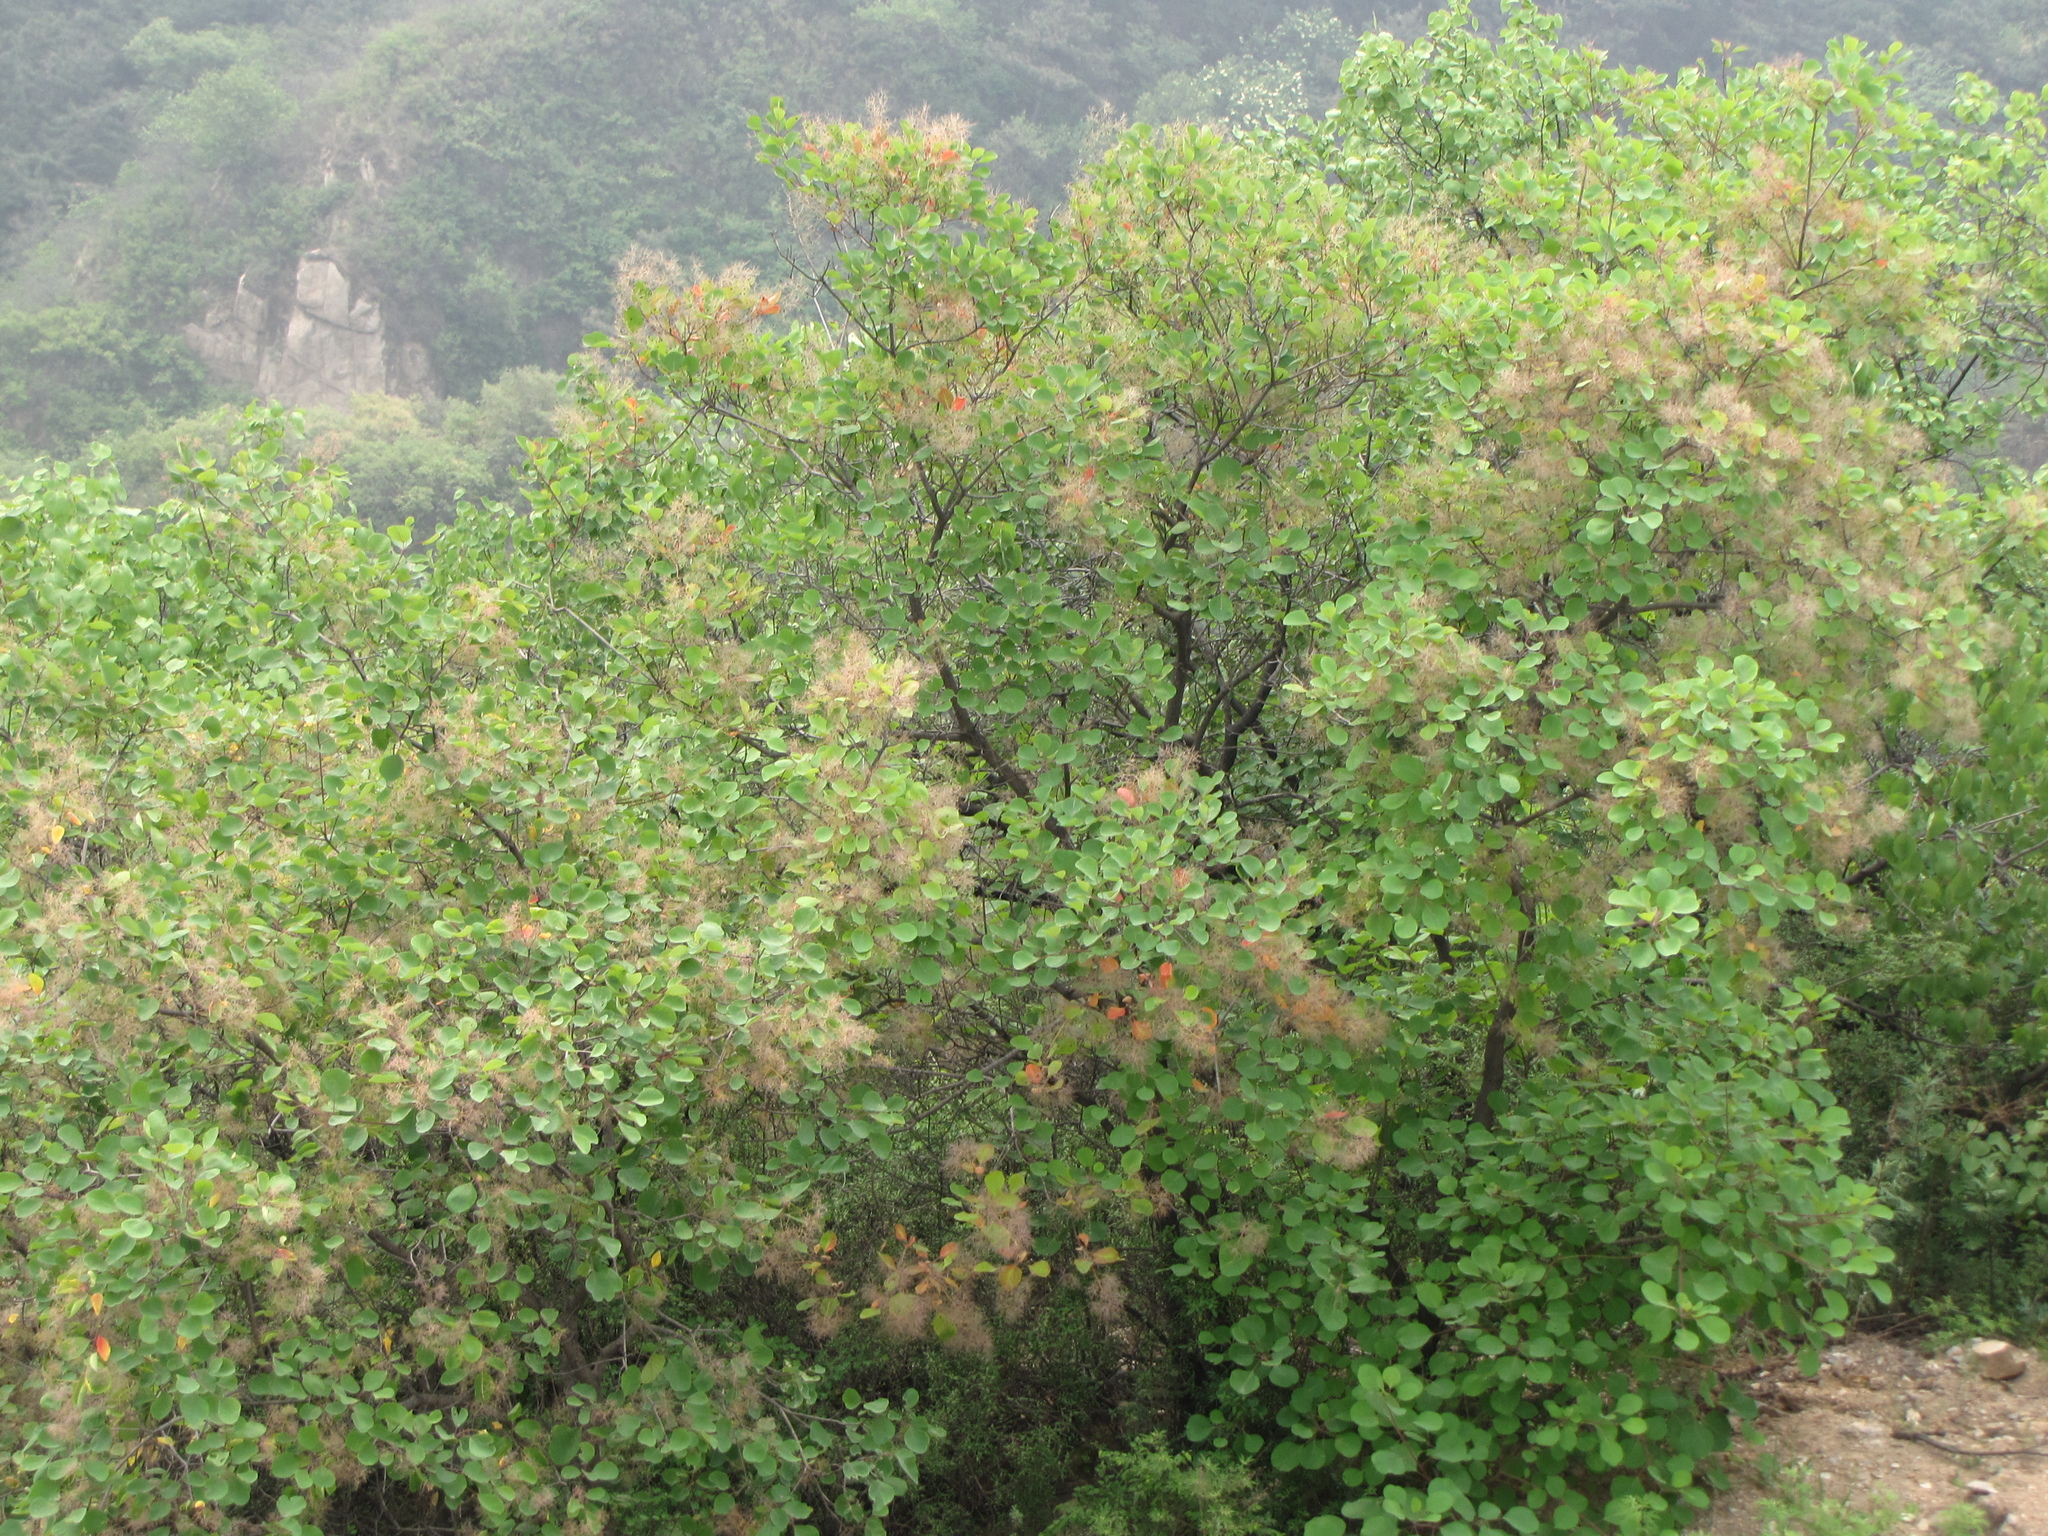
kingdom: Plantae
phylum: Tracheophyta
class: Magnoliopsida
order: Sapindales
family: Anacardiaceae
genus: Cotinus
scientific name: Cotinus coggygria
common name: Smoke-tree
